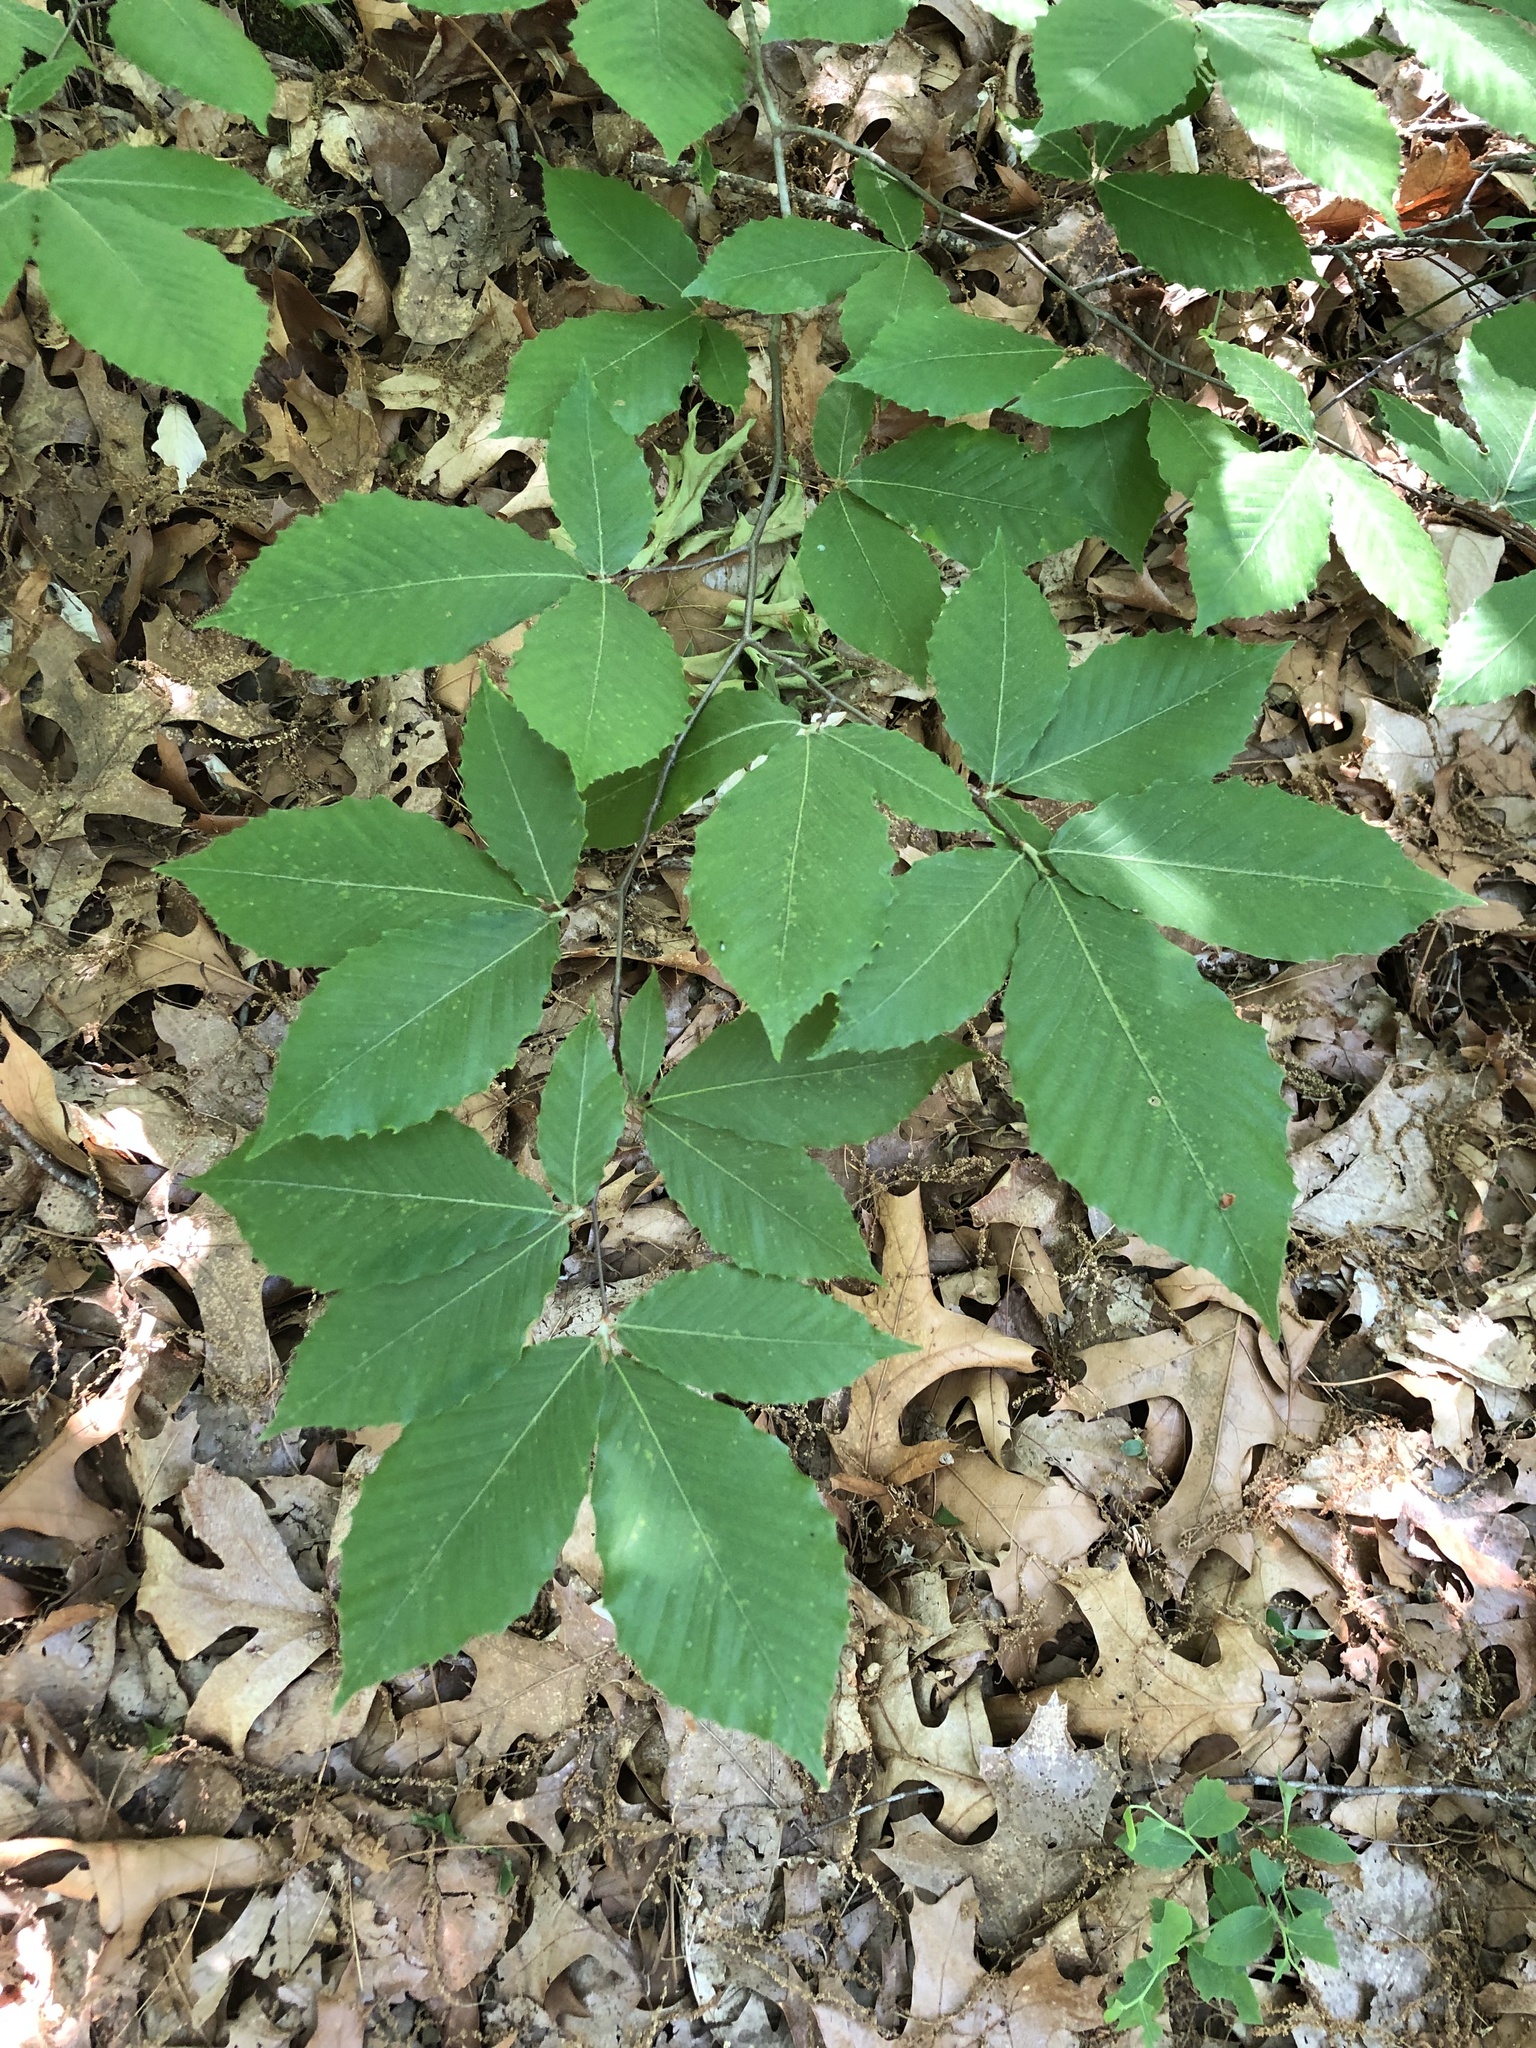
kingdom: Plantae
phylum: Tracheophyta
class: Magnoliopsida
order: Fagales
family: Fagaceae
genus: Fagus
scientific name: Fagus grandifolia
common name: American beech
